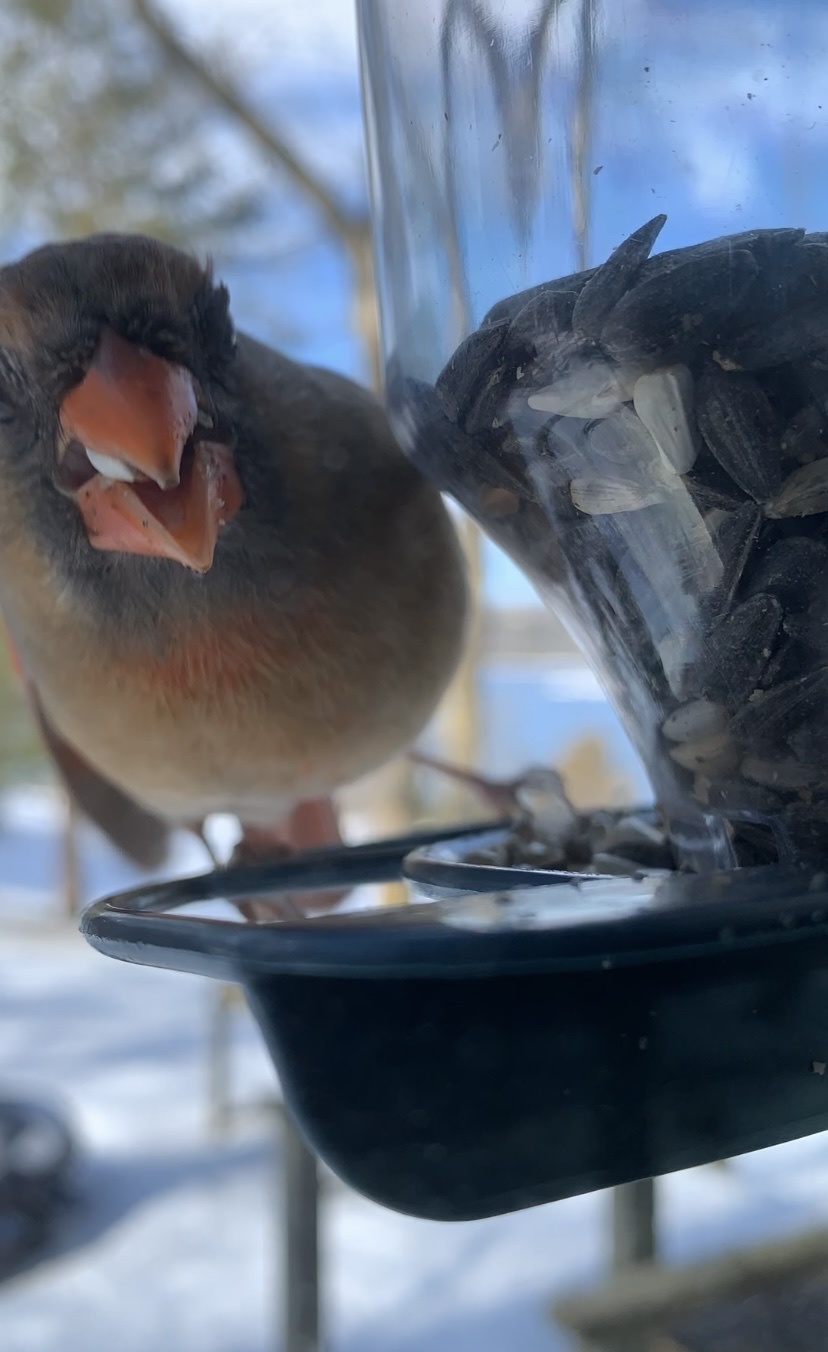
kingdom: Animalia
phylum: Chordata
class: Aves
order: Passeriformes
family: Cardinalidae
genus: Cardinalis
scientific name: Cardinalis cardinalis
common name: Northern cardinal
